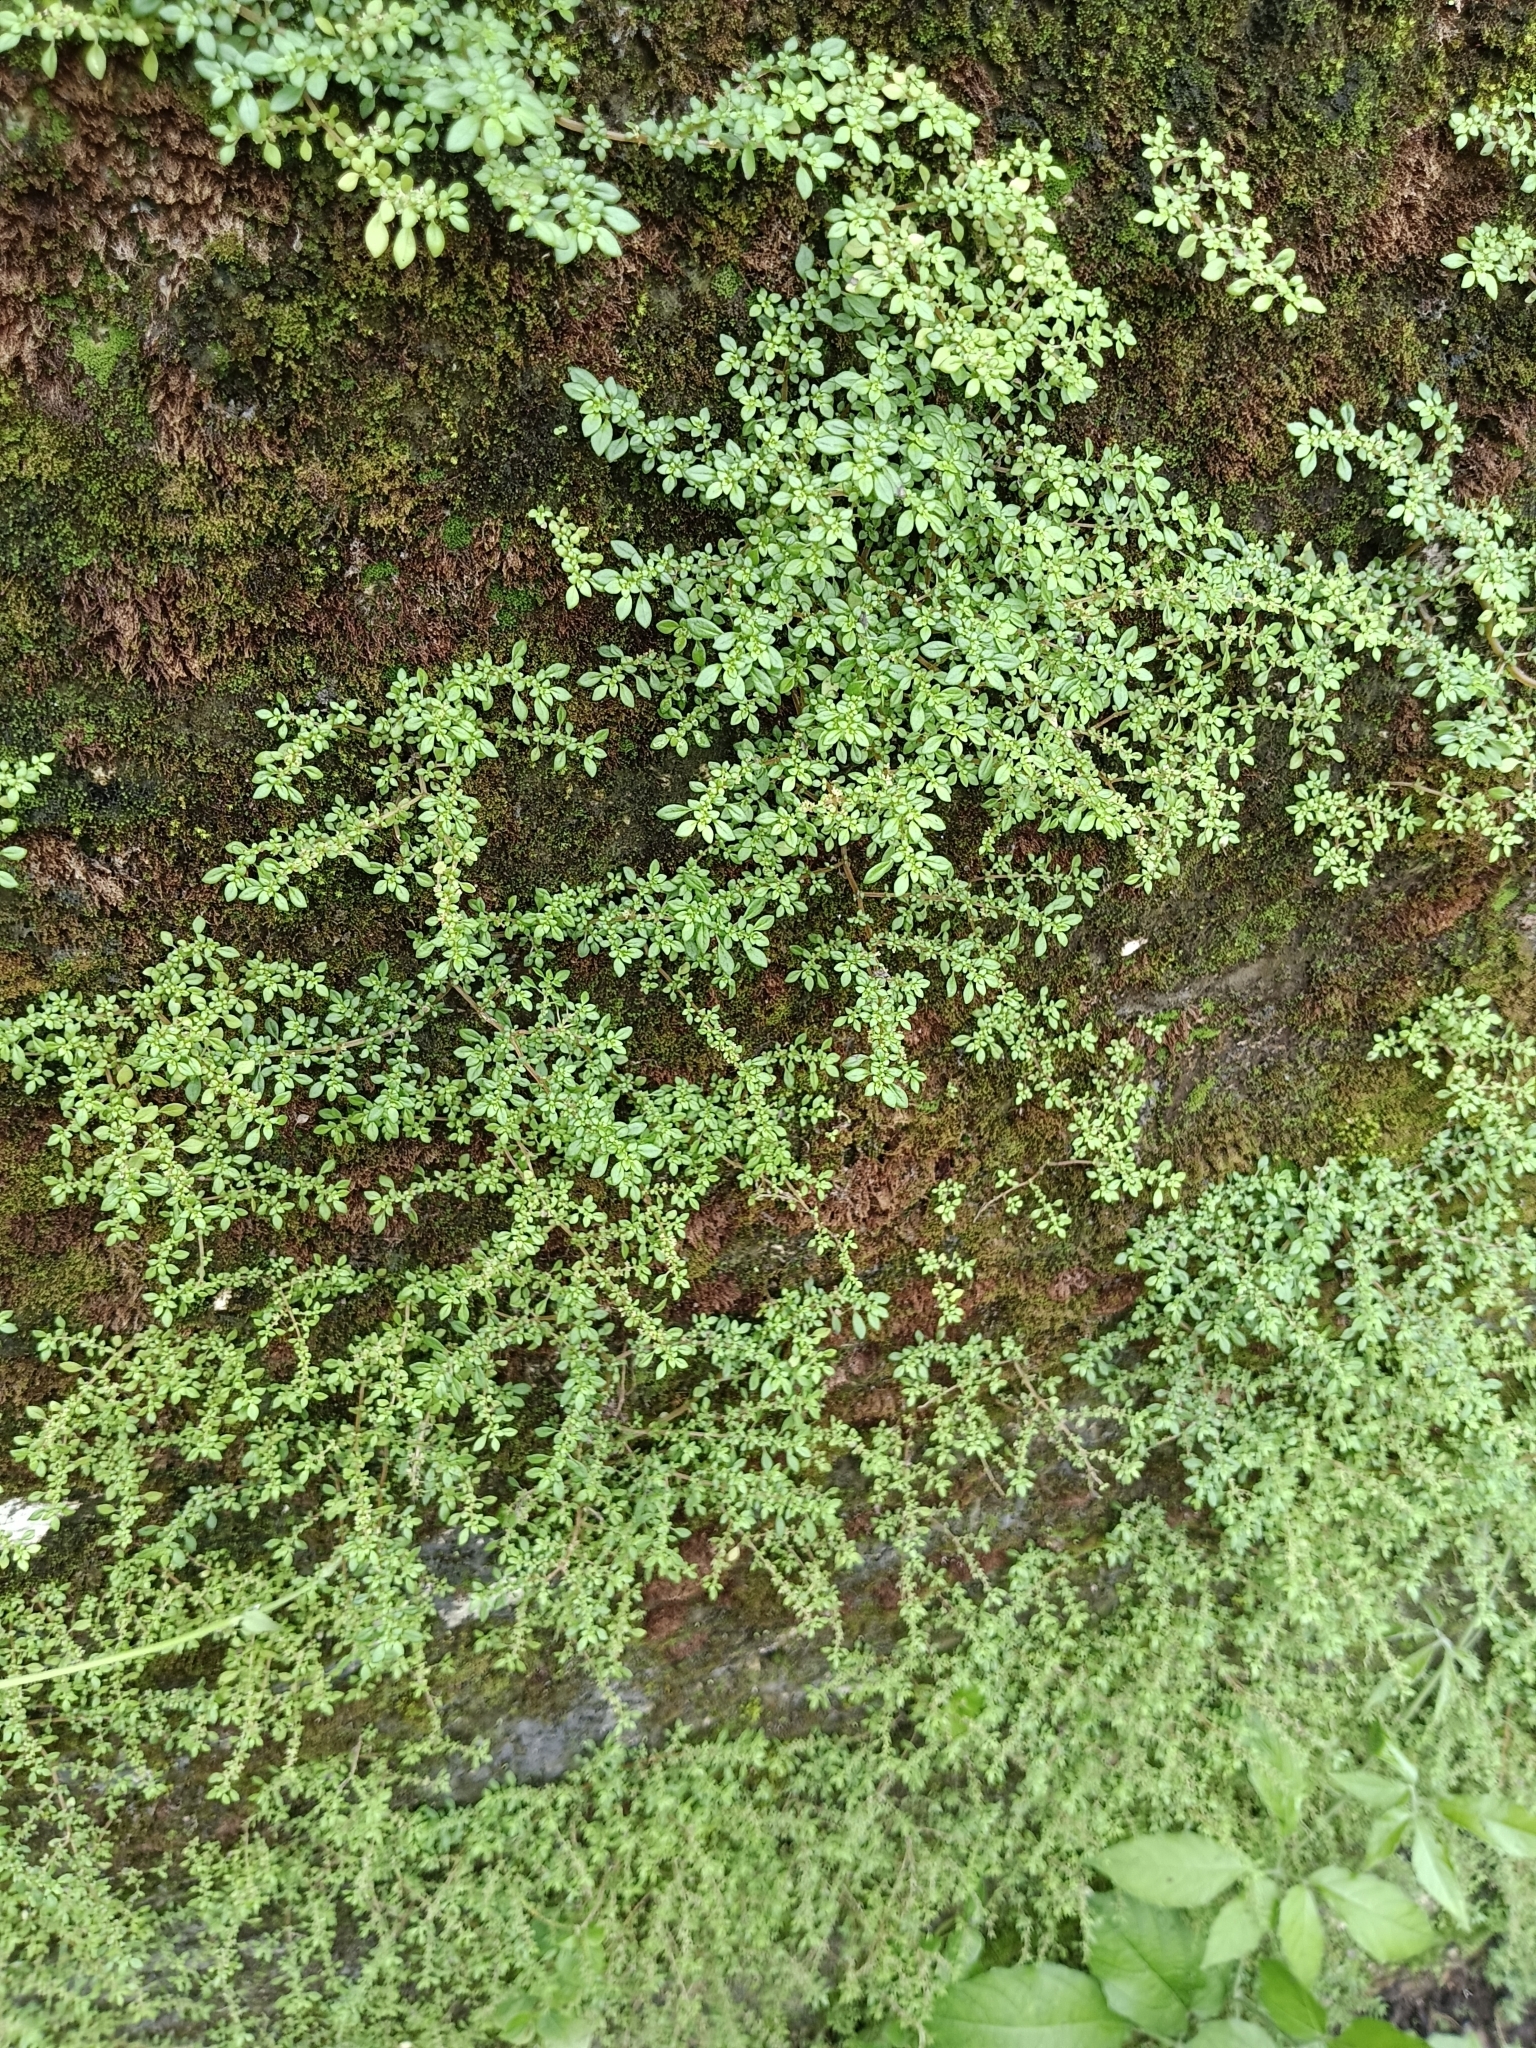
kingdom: Plantae
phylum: Tracheophyta
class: Magnoliopsida
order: Rosales
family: Urticaceae
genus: Pilea
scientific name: Pilea microphylla
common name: Artillery-plant
